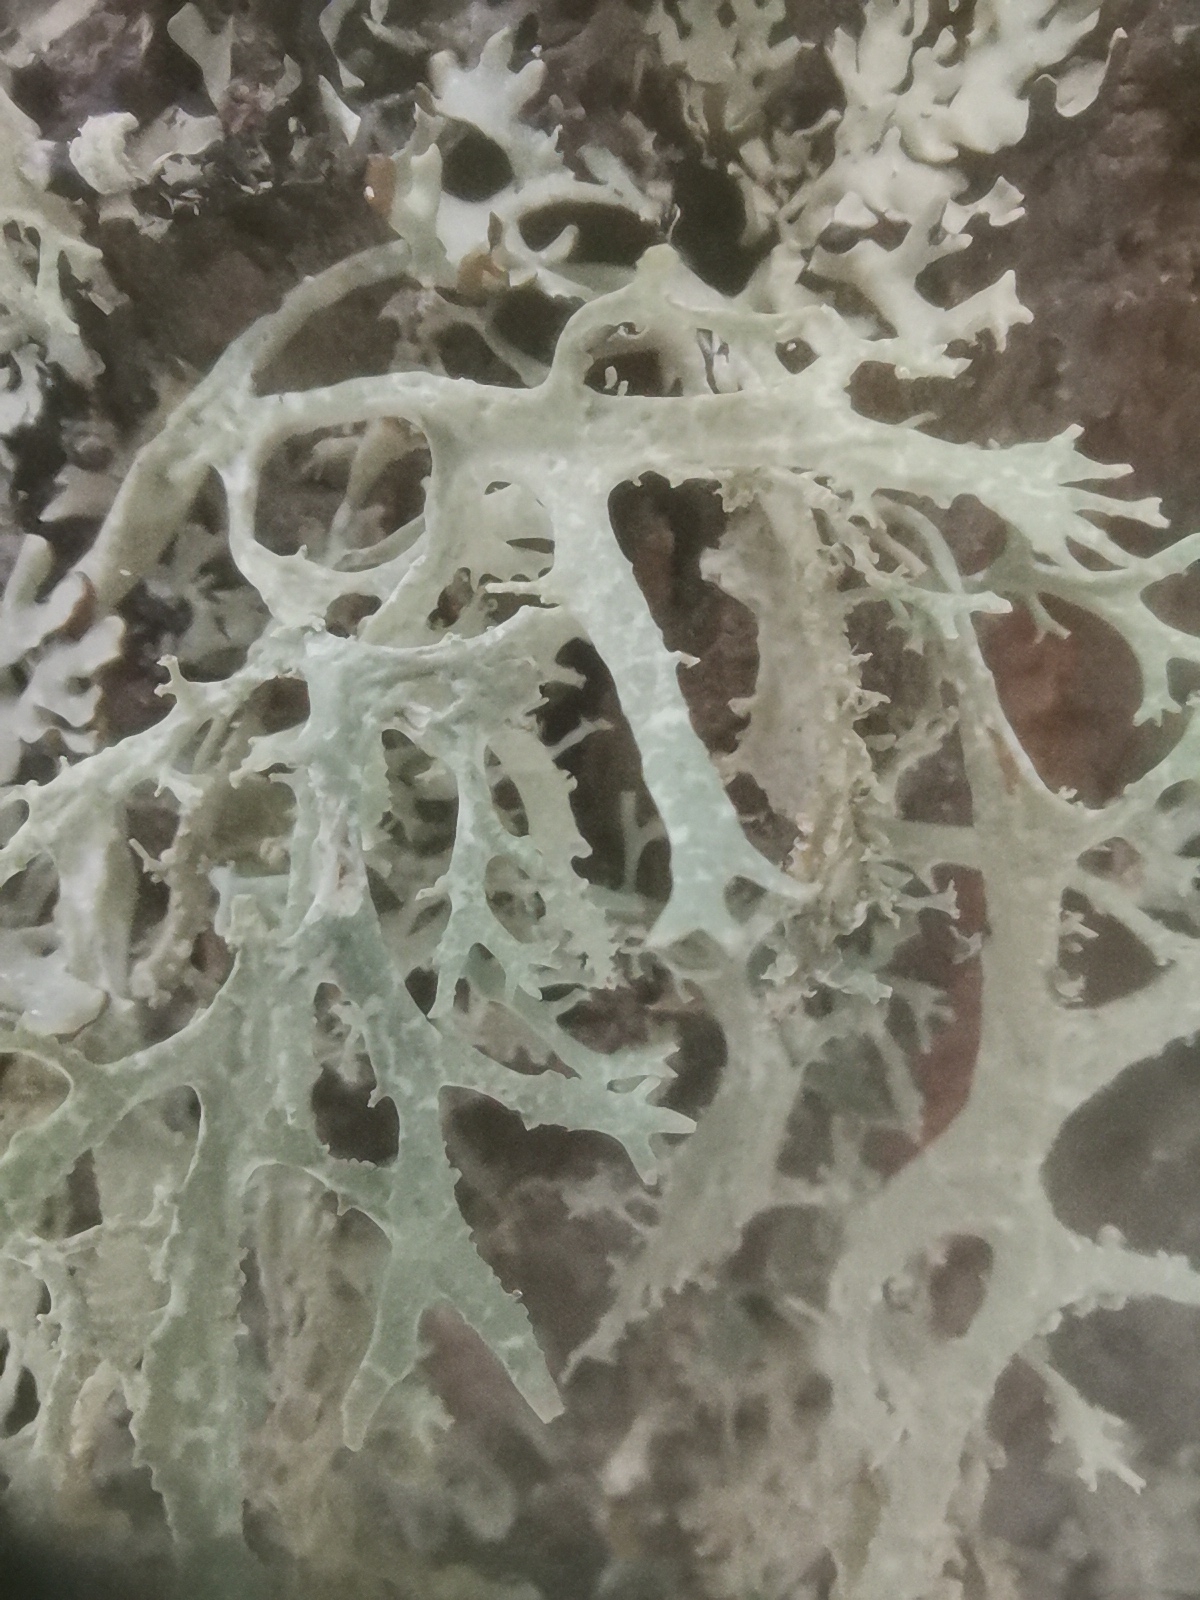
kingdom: Fungi
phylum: Ascomycota
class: Lecanoromycetes
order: Lecanorales
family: Parmeliaceae
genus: Evernia
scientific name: Evernia prunastri
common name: Oak moss
